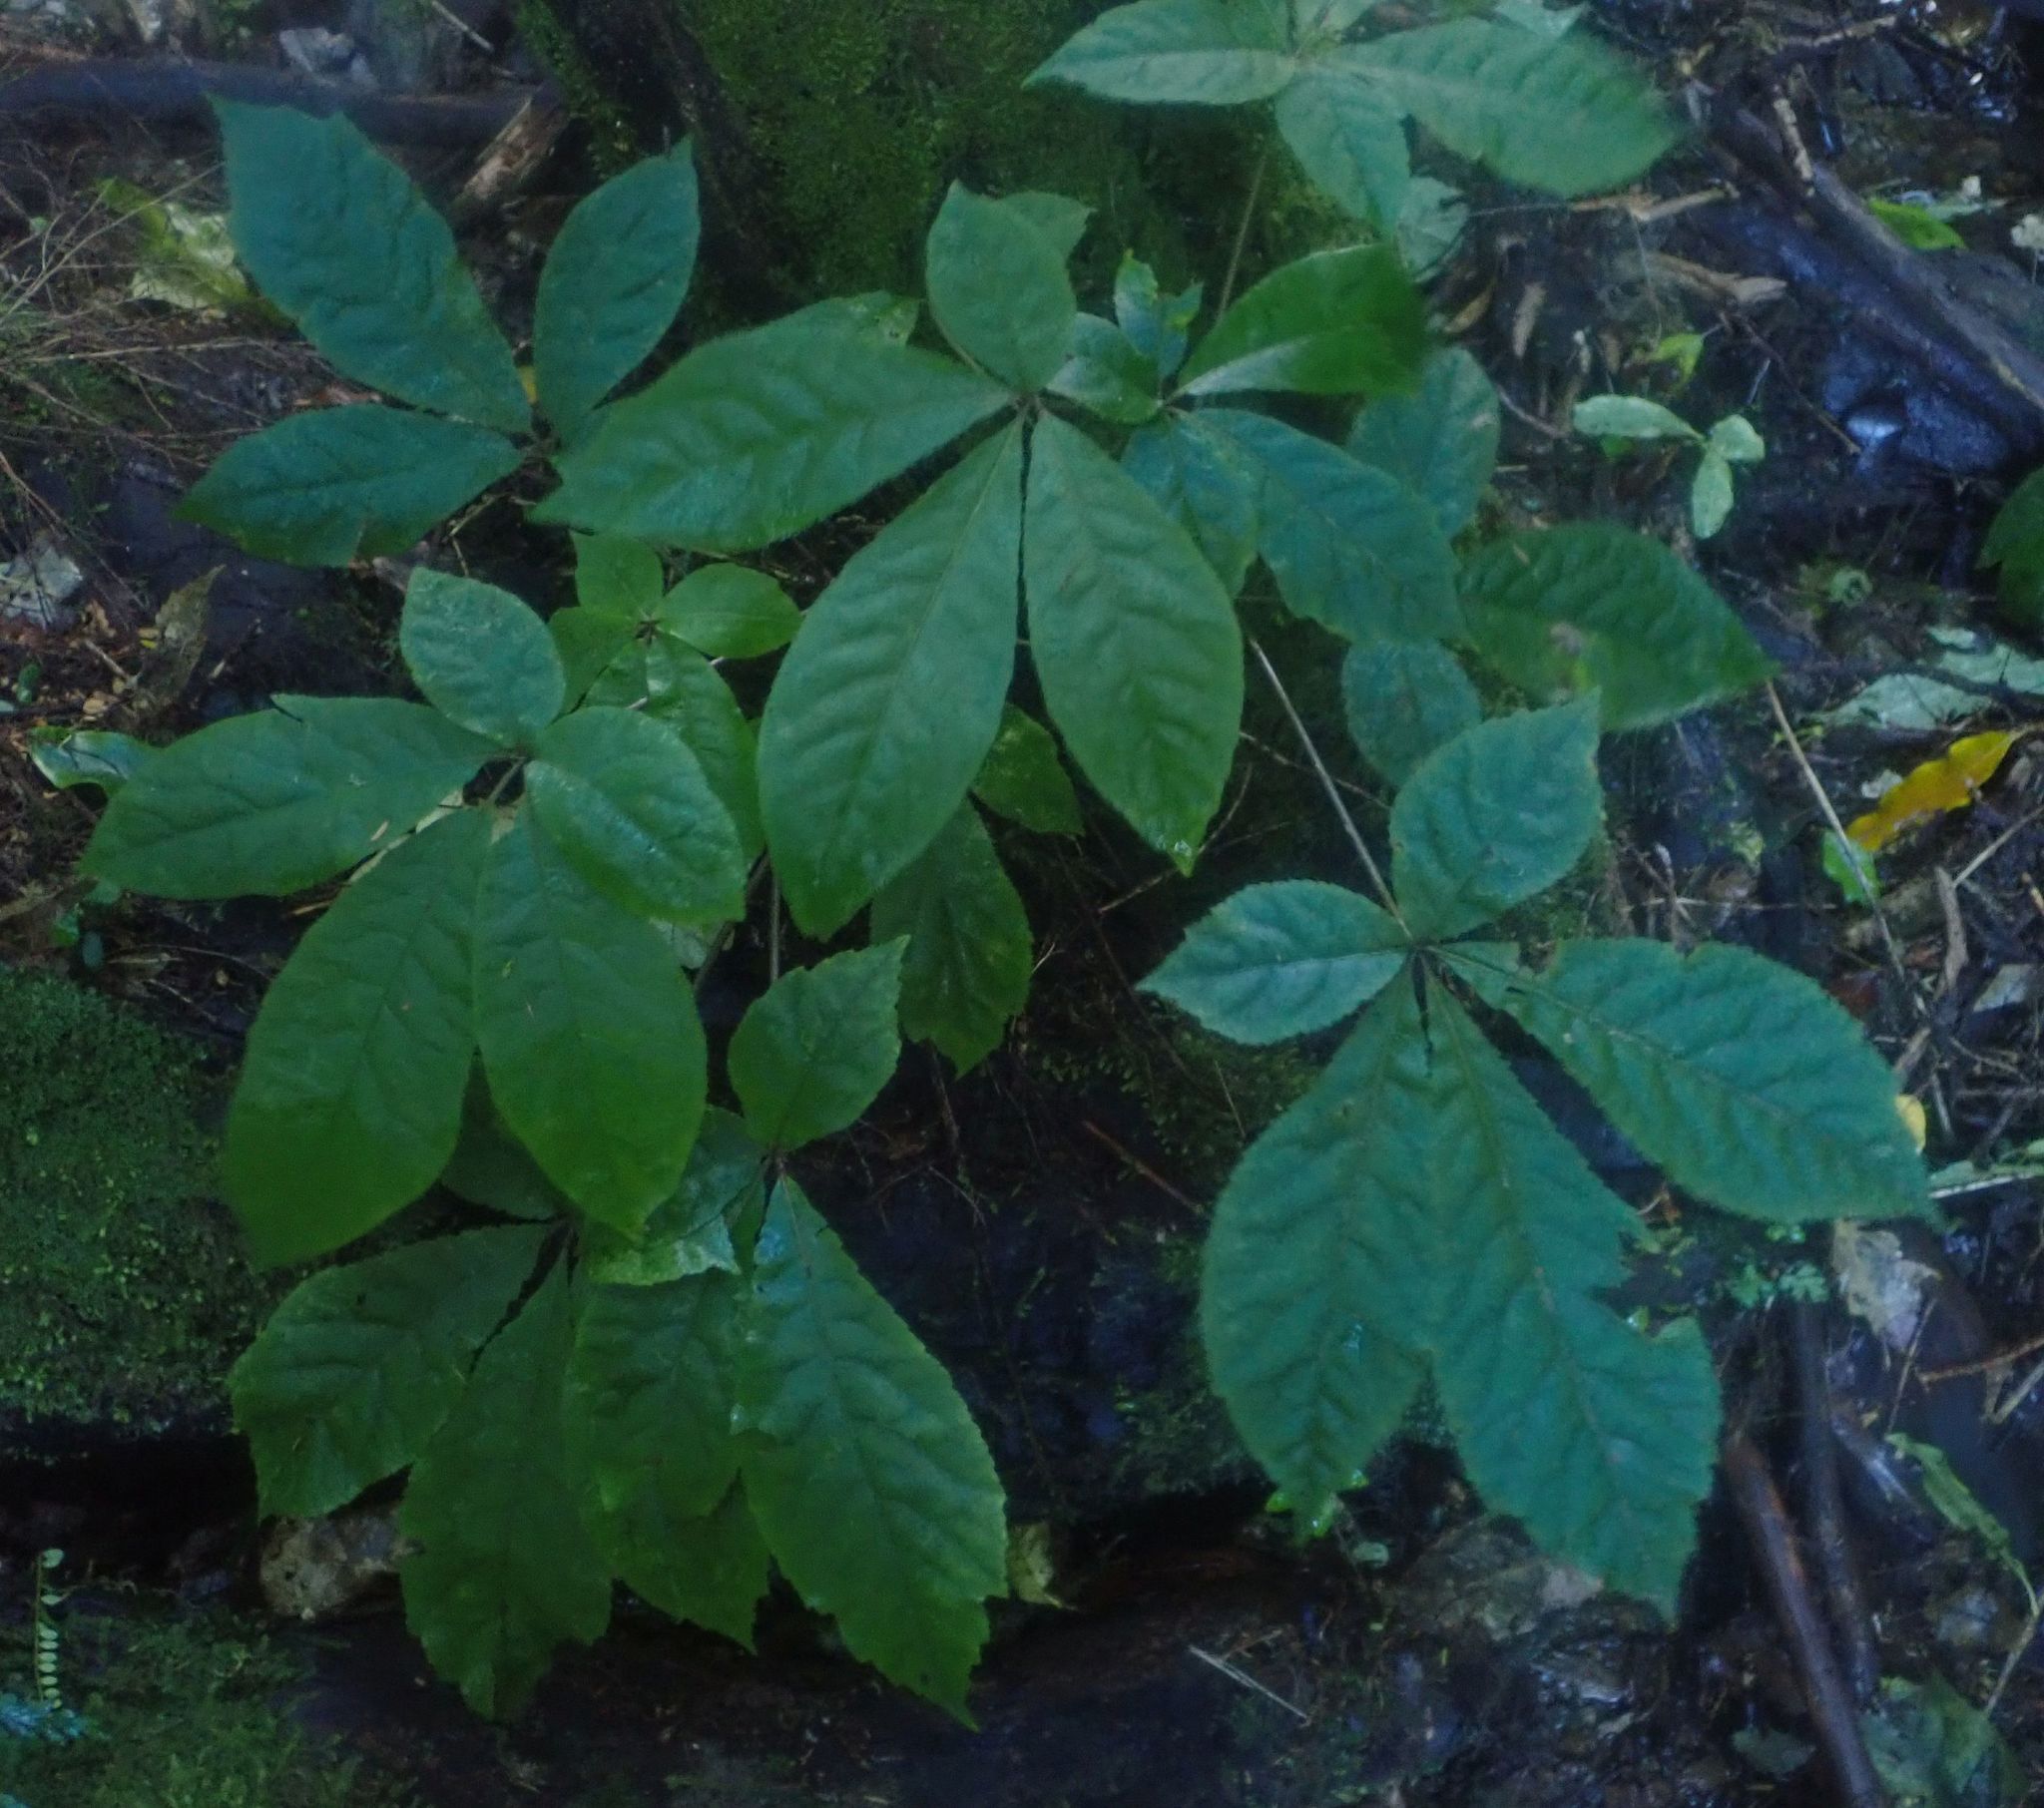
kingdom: Plantae
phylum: Tracheophyta
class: Magnoliopsida
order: Apiales
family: Araliaceae
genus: Schefflera
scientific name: Schefflera digitata
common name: Pate
